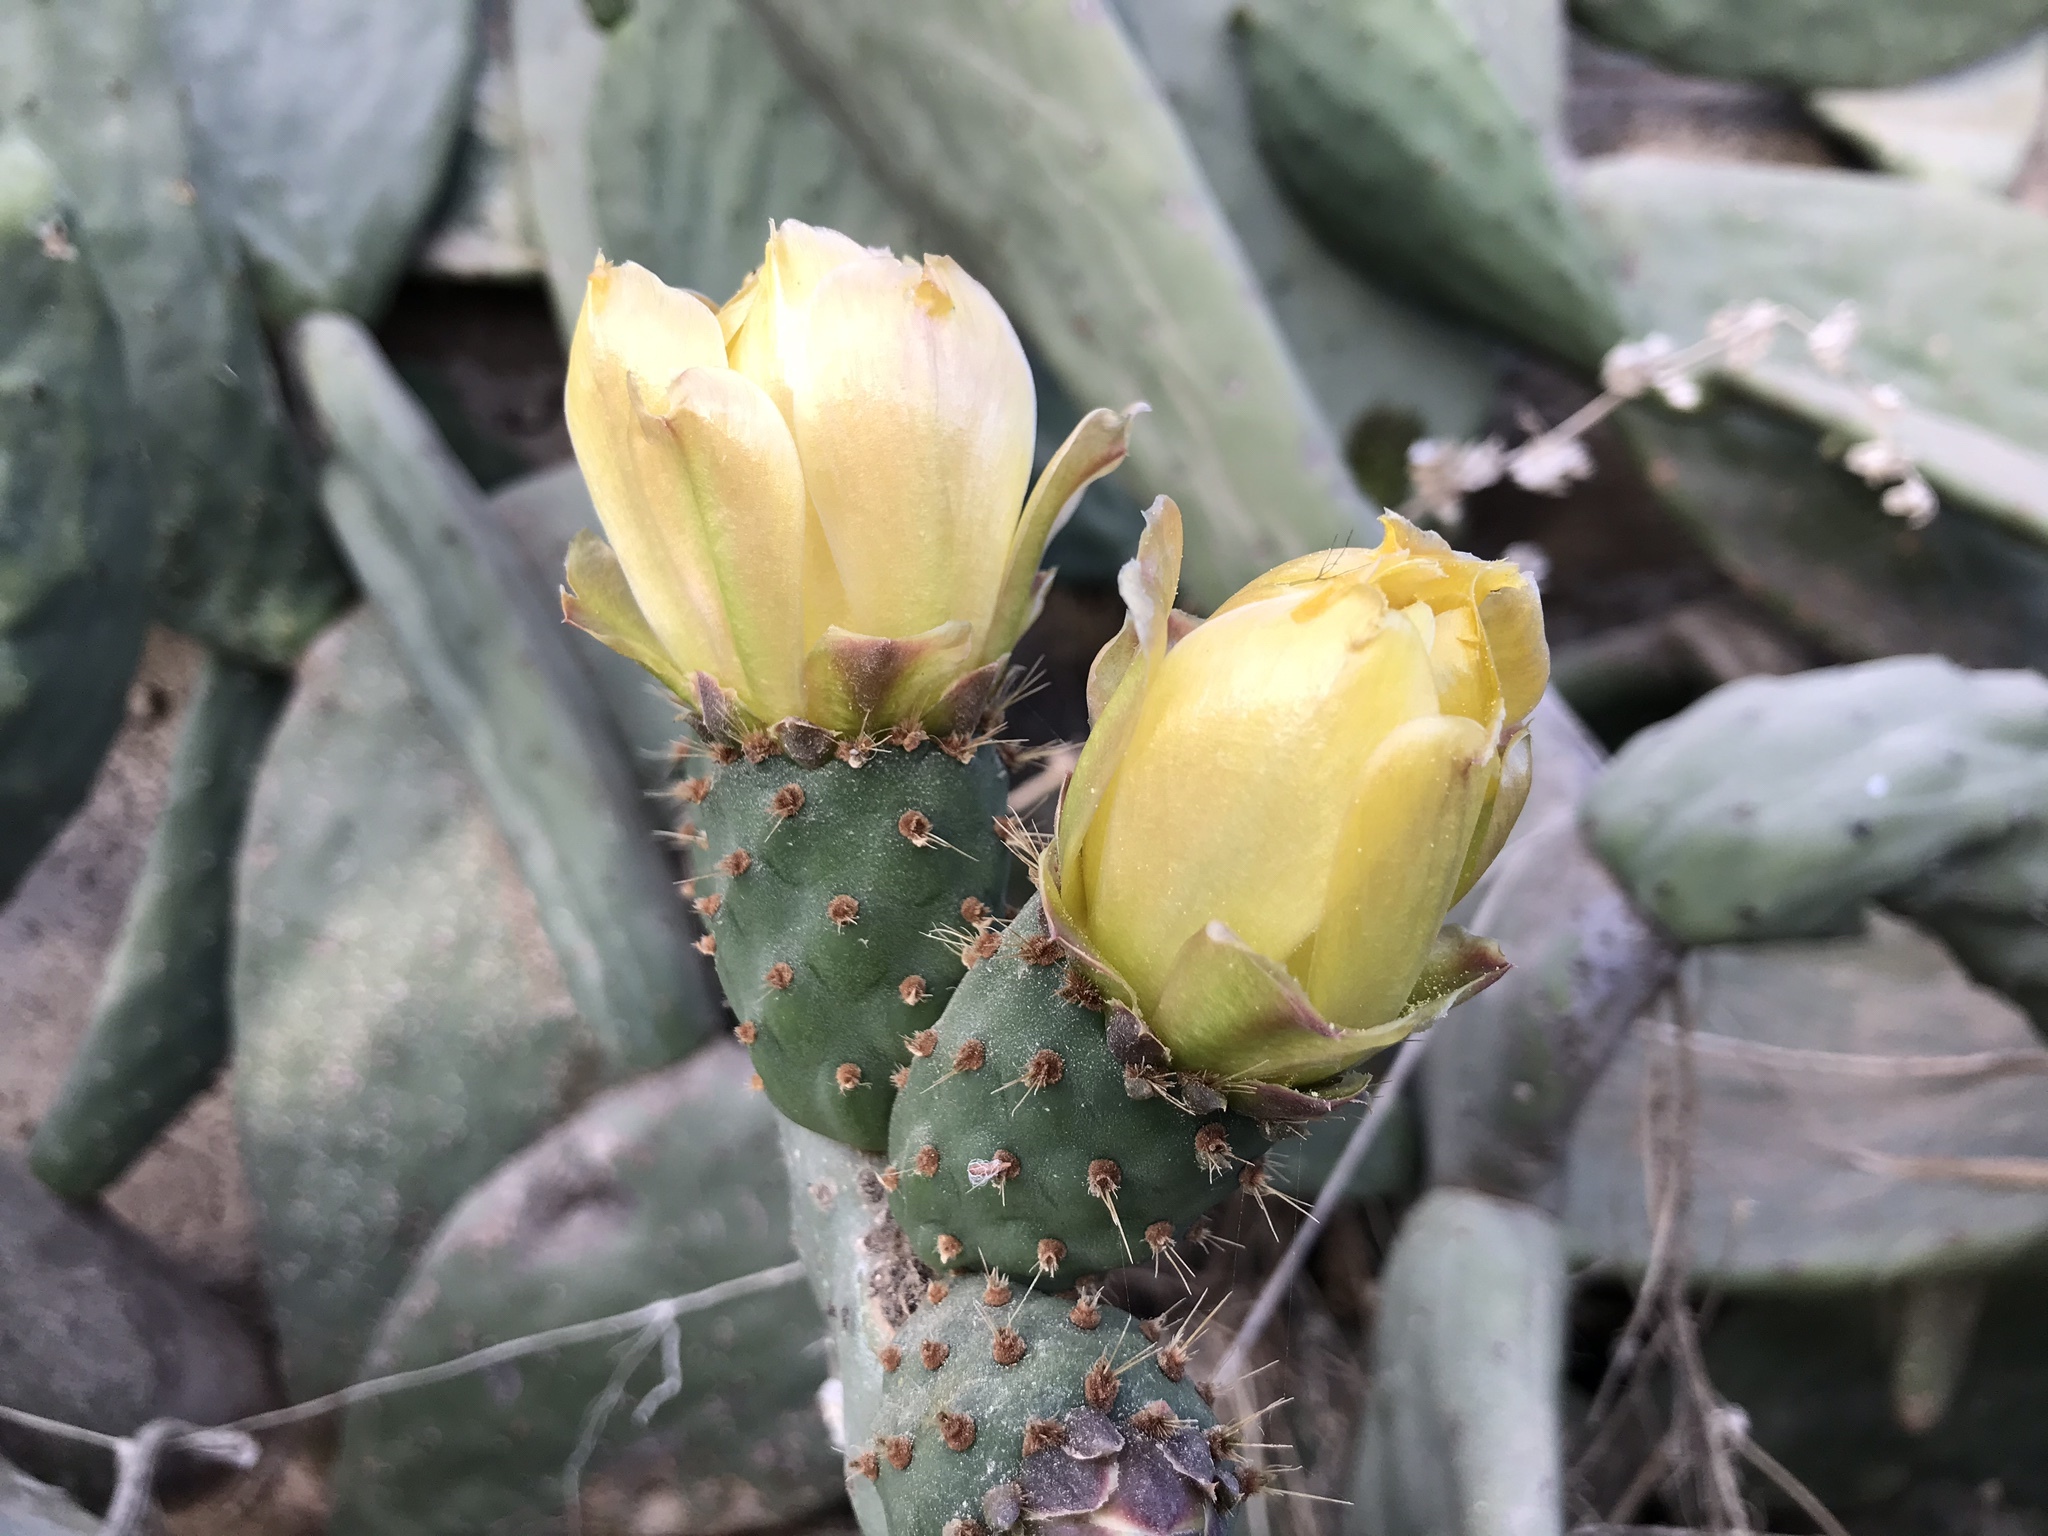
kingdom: Plantae
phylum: Tracheophyta
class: Magnoliopsida
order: Caryophyllales
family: Cactaceae
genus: Opuntia
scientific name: Opuntia ficus-indica
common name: Barbary fig
